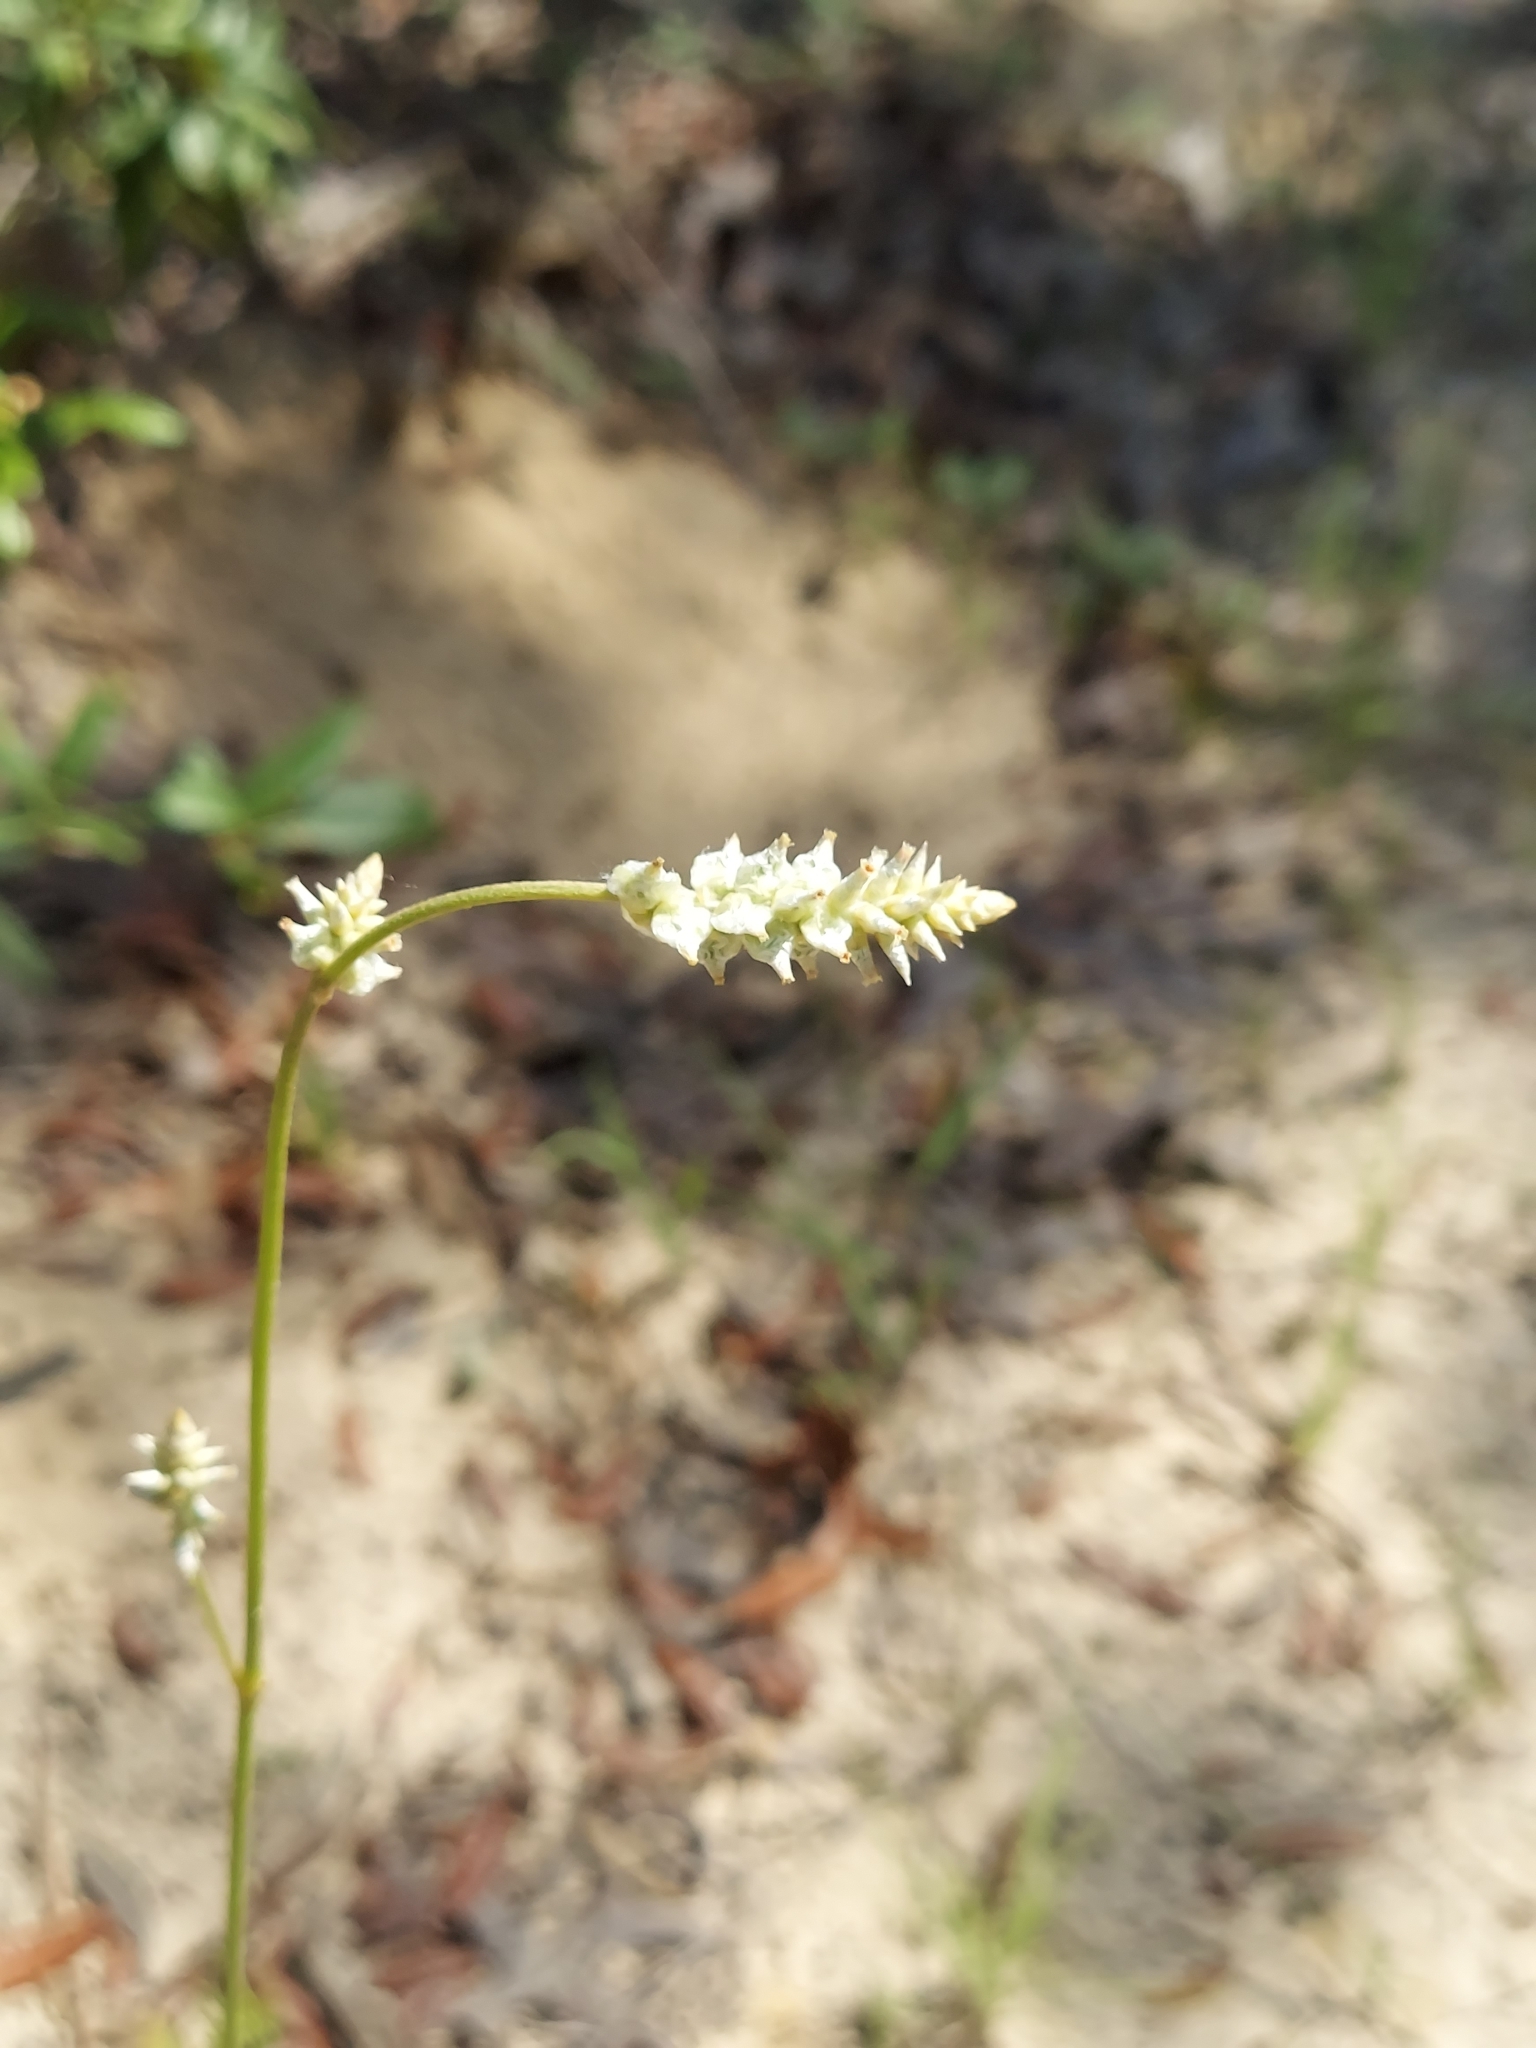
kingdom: Plantae
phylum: Tracheophyta
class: Magnoliopsida
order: Caryophyllales
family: Amaranthaceae
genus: Froelichia
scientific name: Froelichia floridana
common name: Florida snake-cotton
